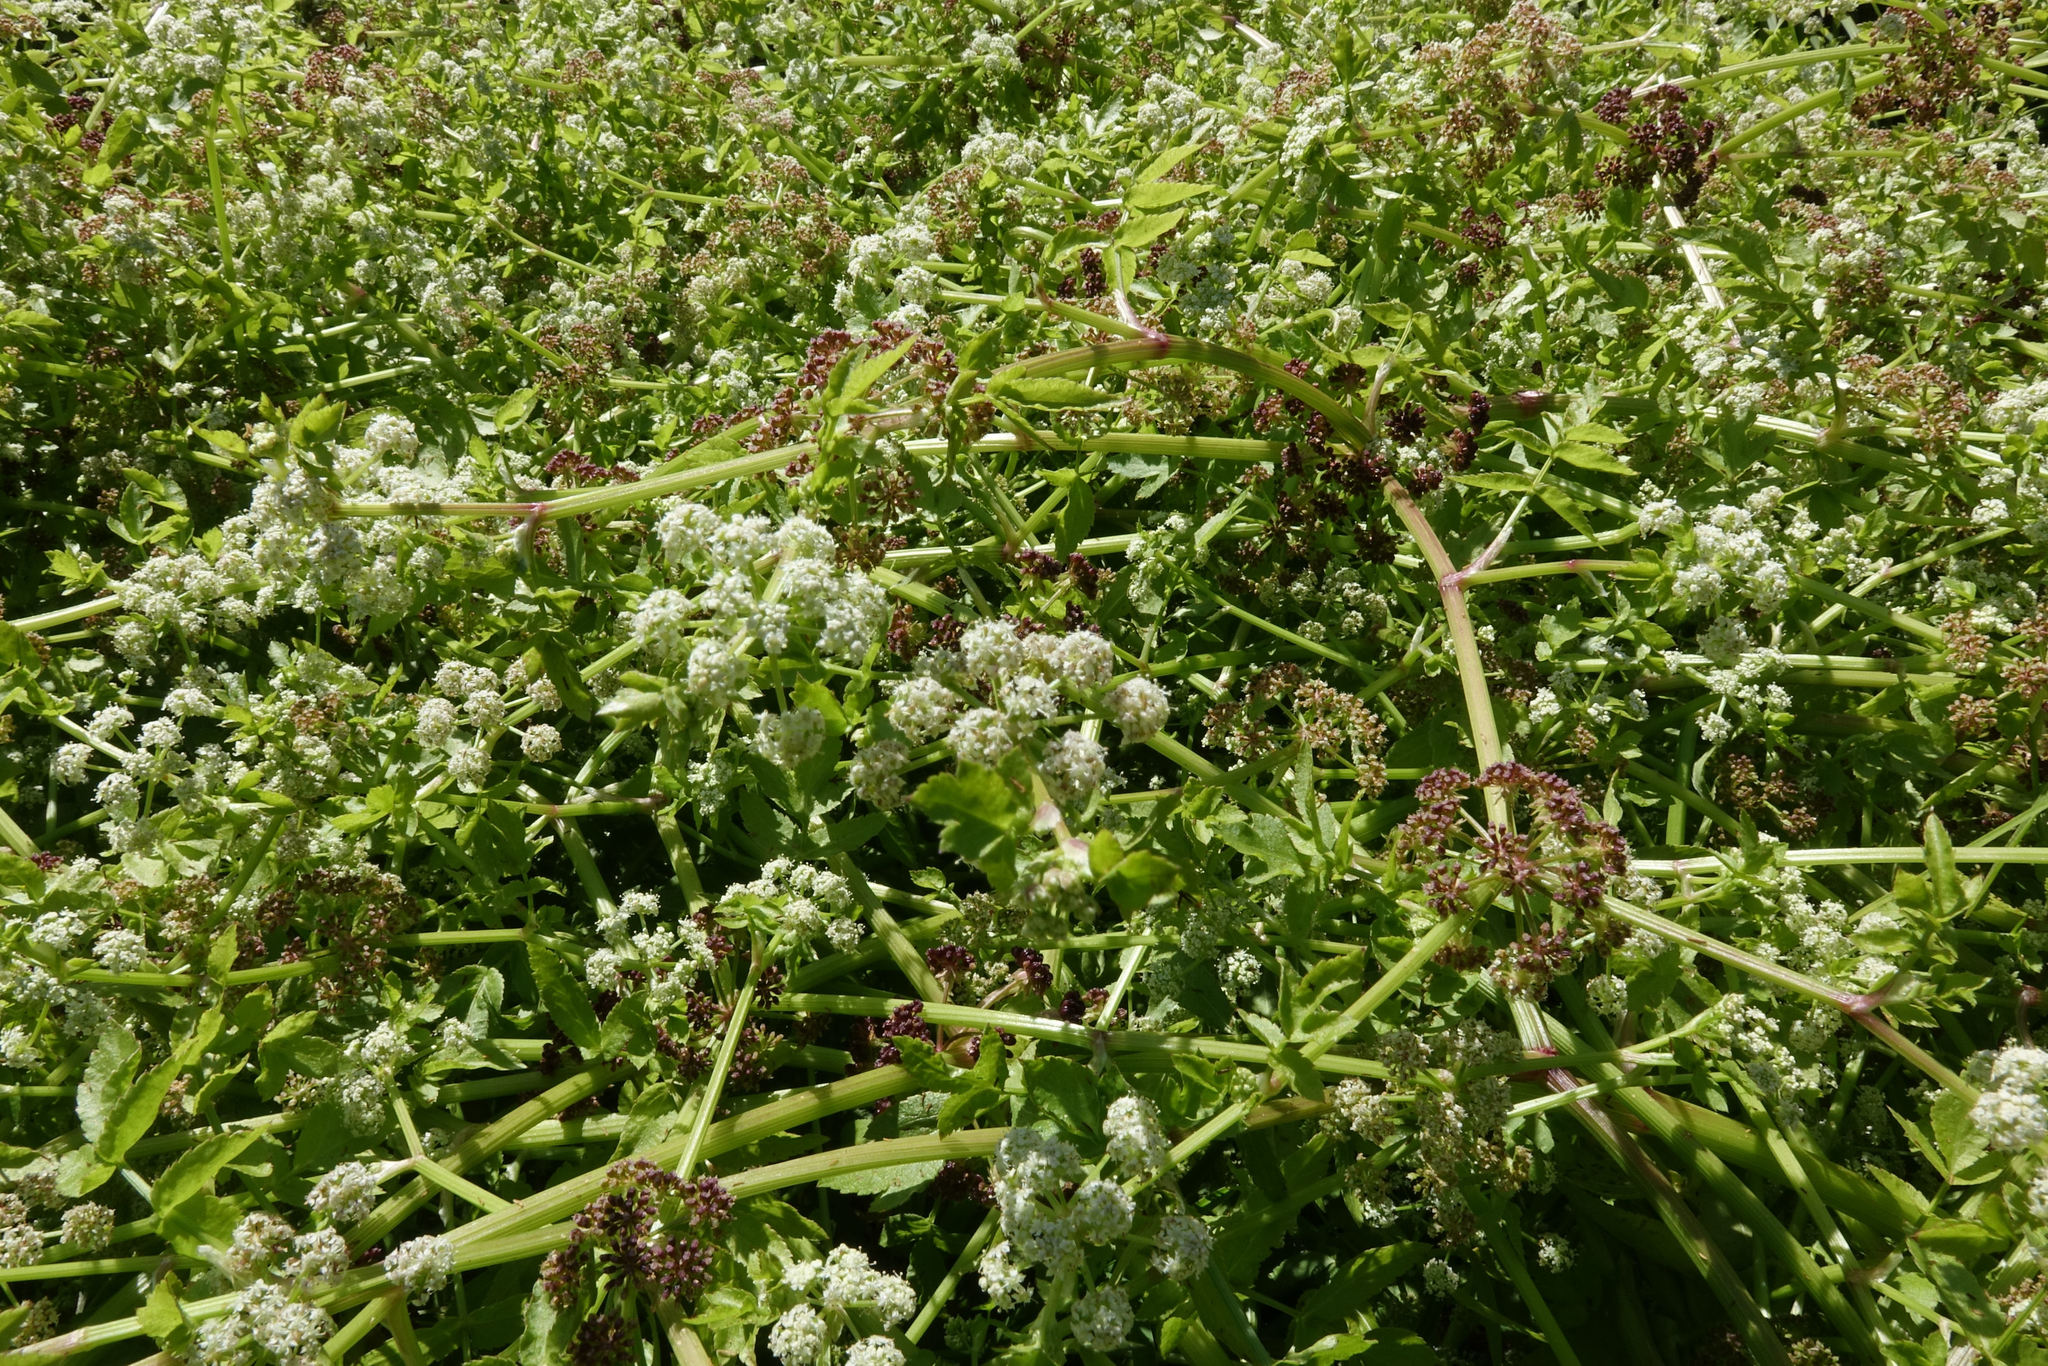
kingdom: Plantae
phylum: Tracheophyta
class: Magnoliopsida
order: Apiales
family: Apiaceae
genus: Helosciadium
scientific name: Helosciadium nodiflorum
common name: Fool's-watercress
